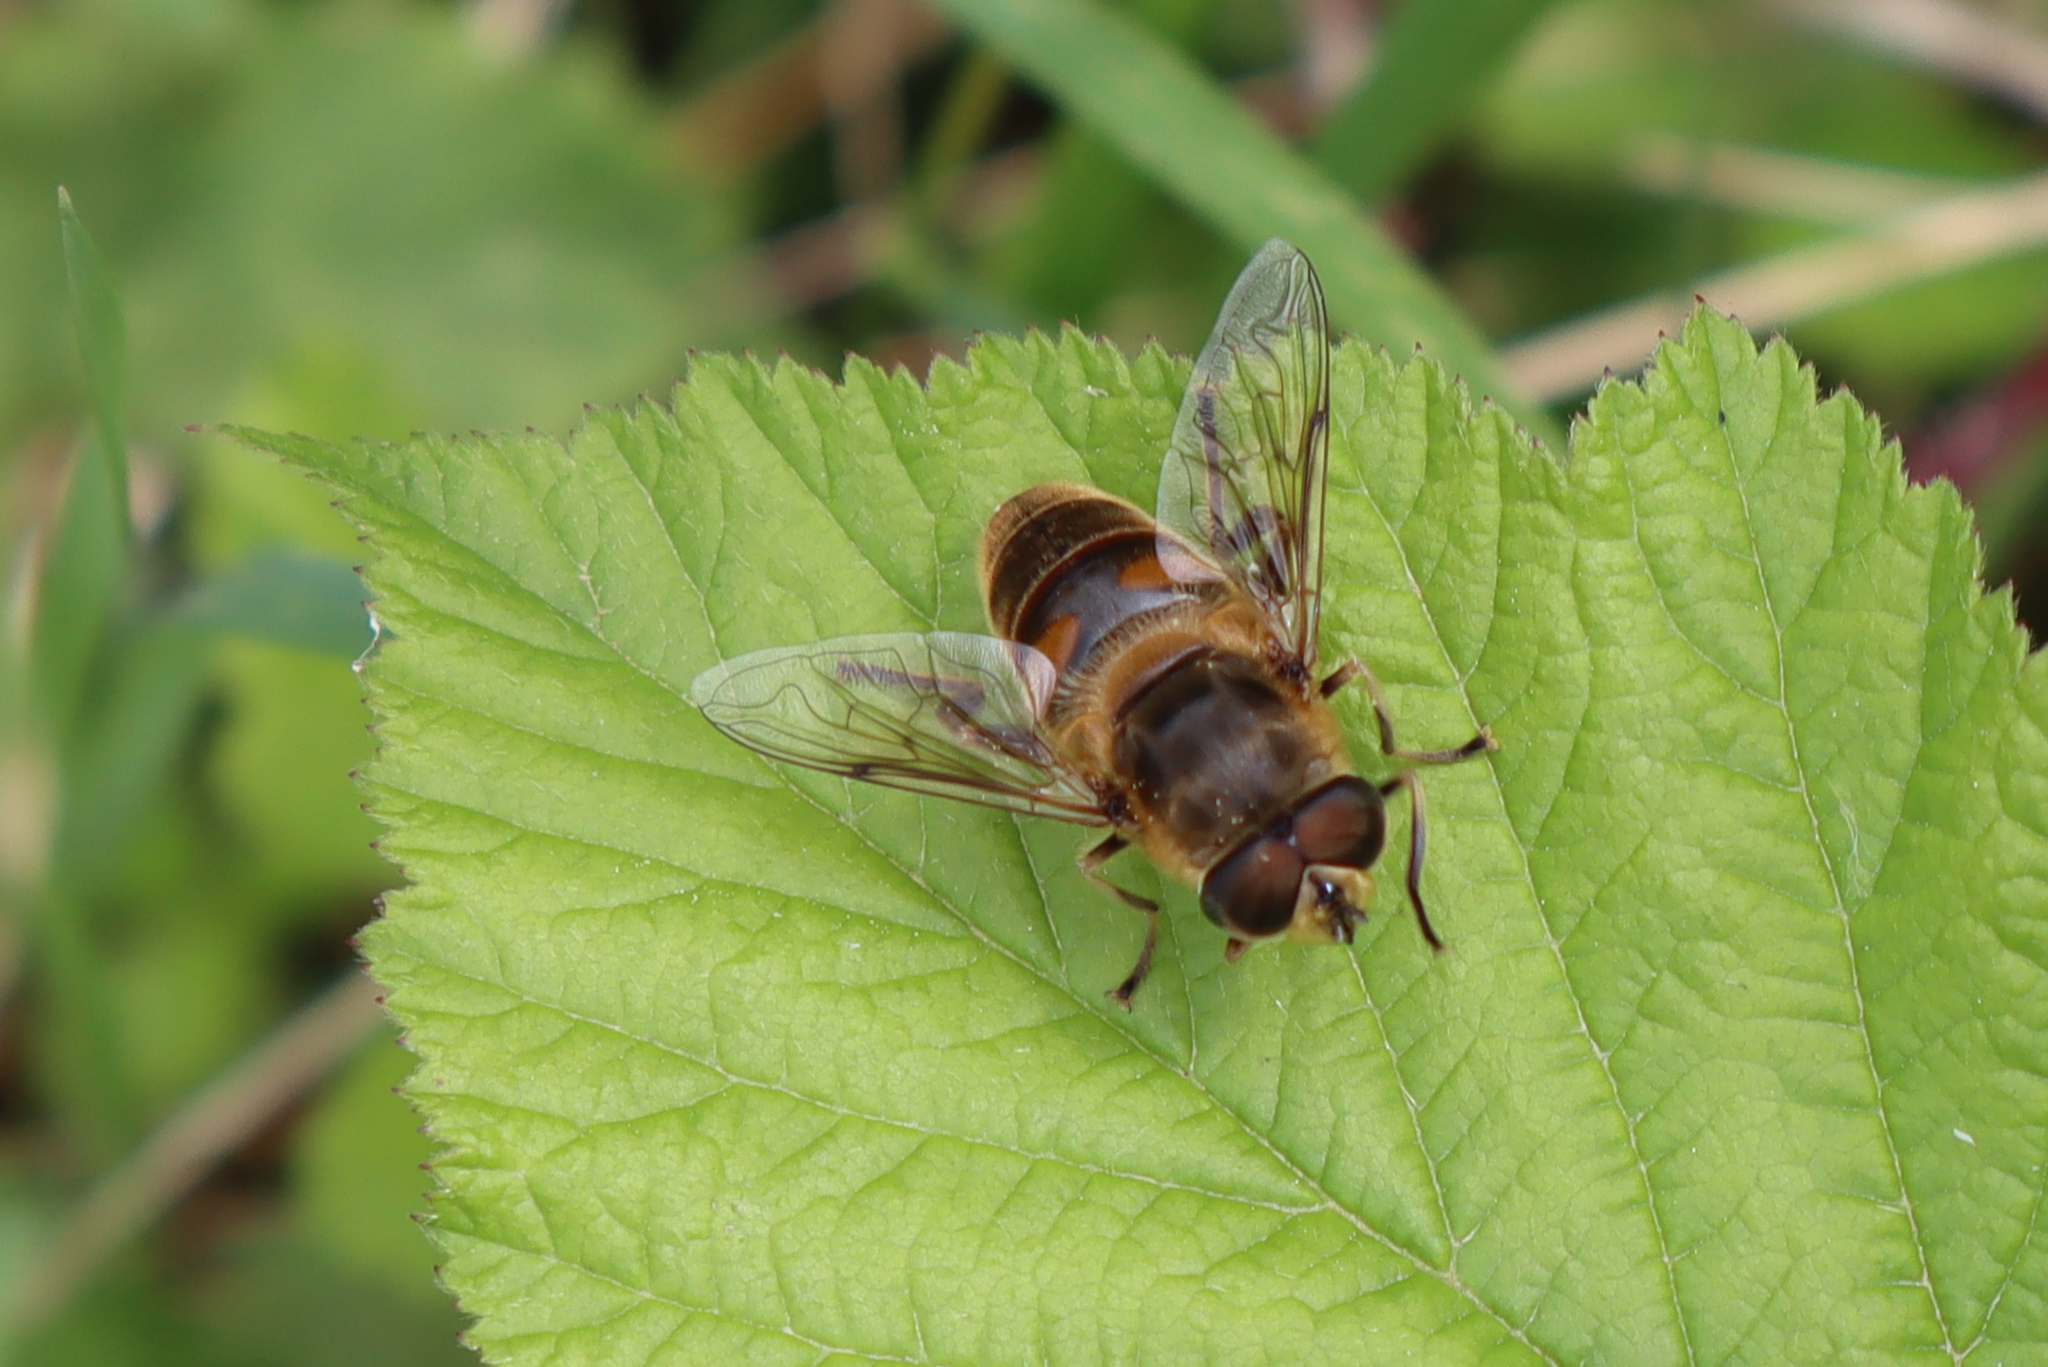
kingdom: Animalia
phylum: Arthropoda
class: Insecta
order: Diptera
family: Syrphidae
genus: Eristalis
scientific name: Eristalis tenax
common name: Drone fly
